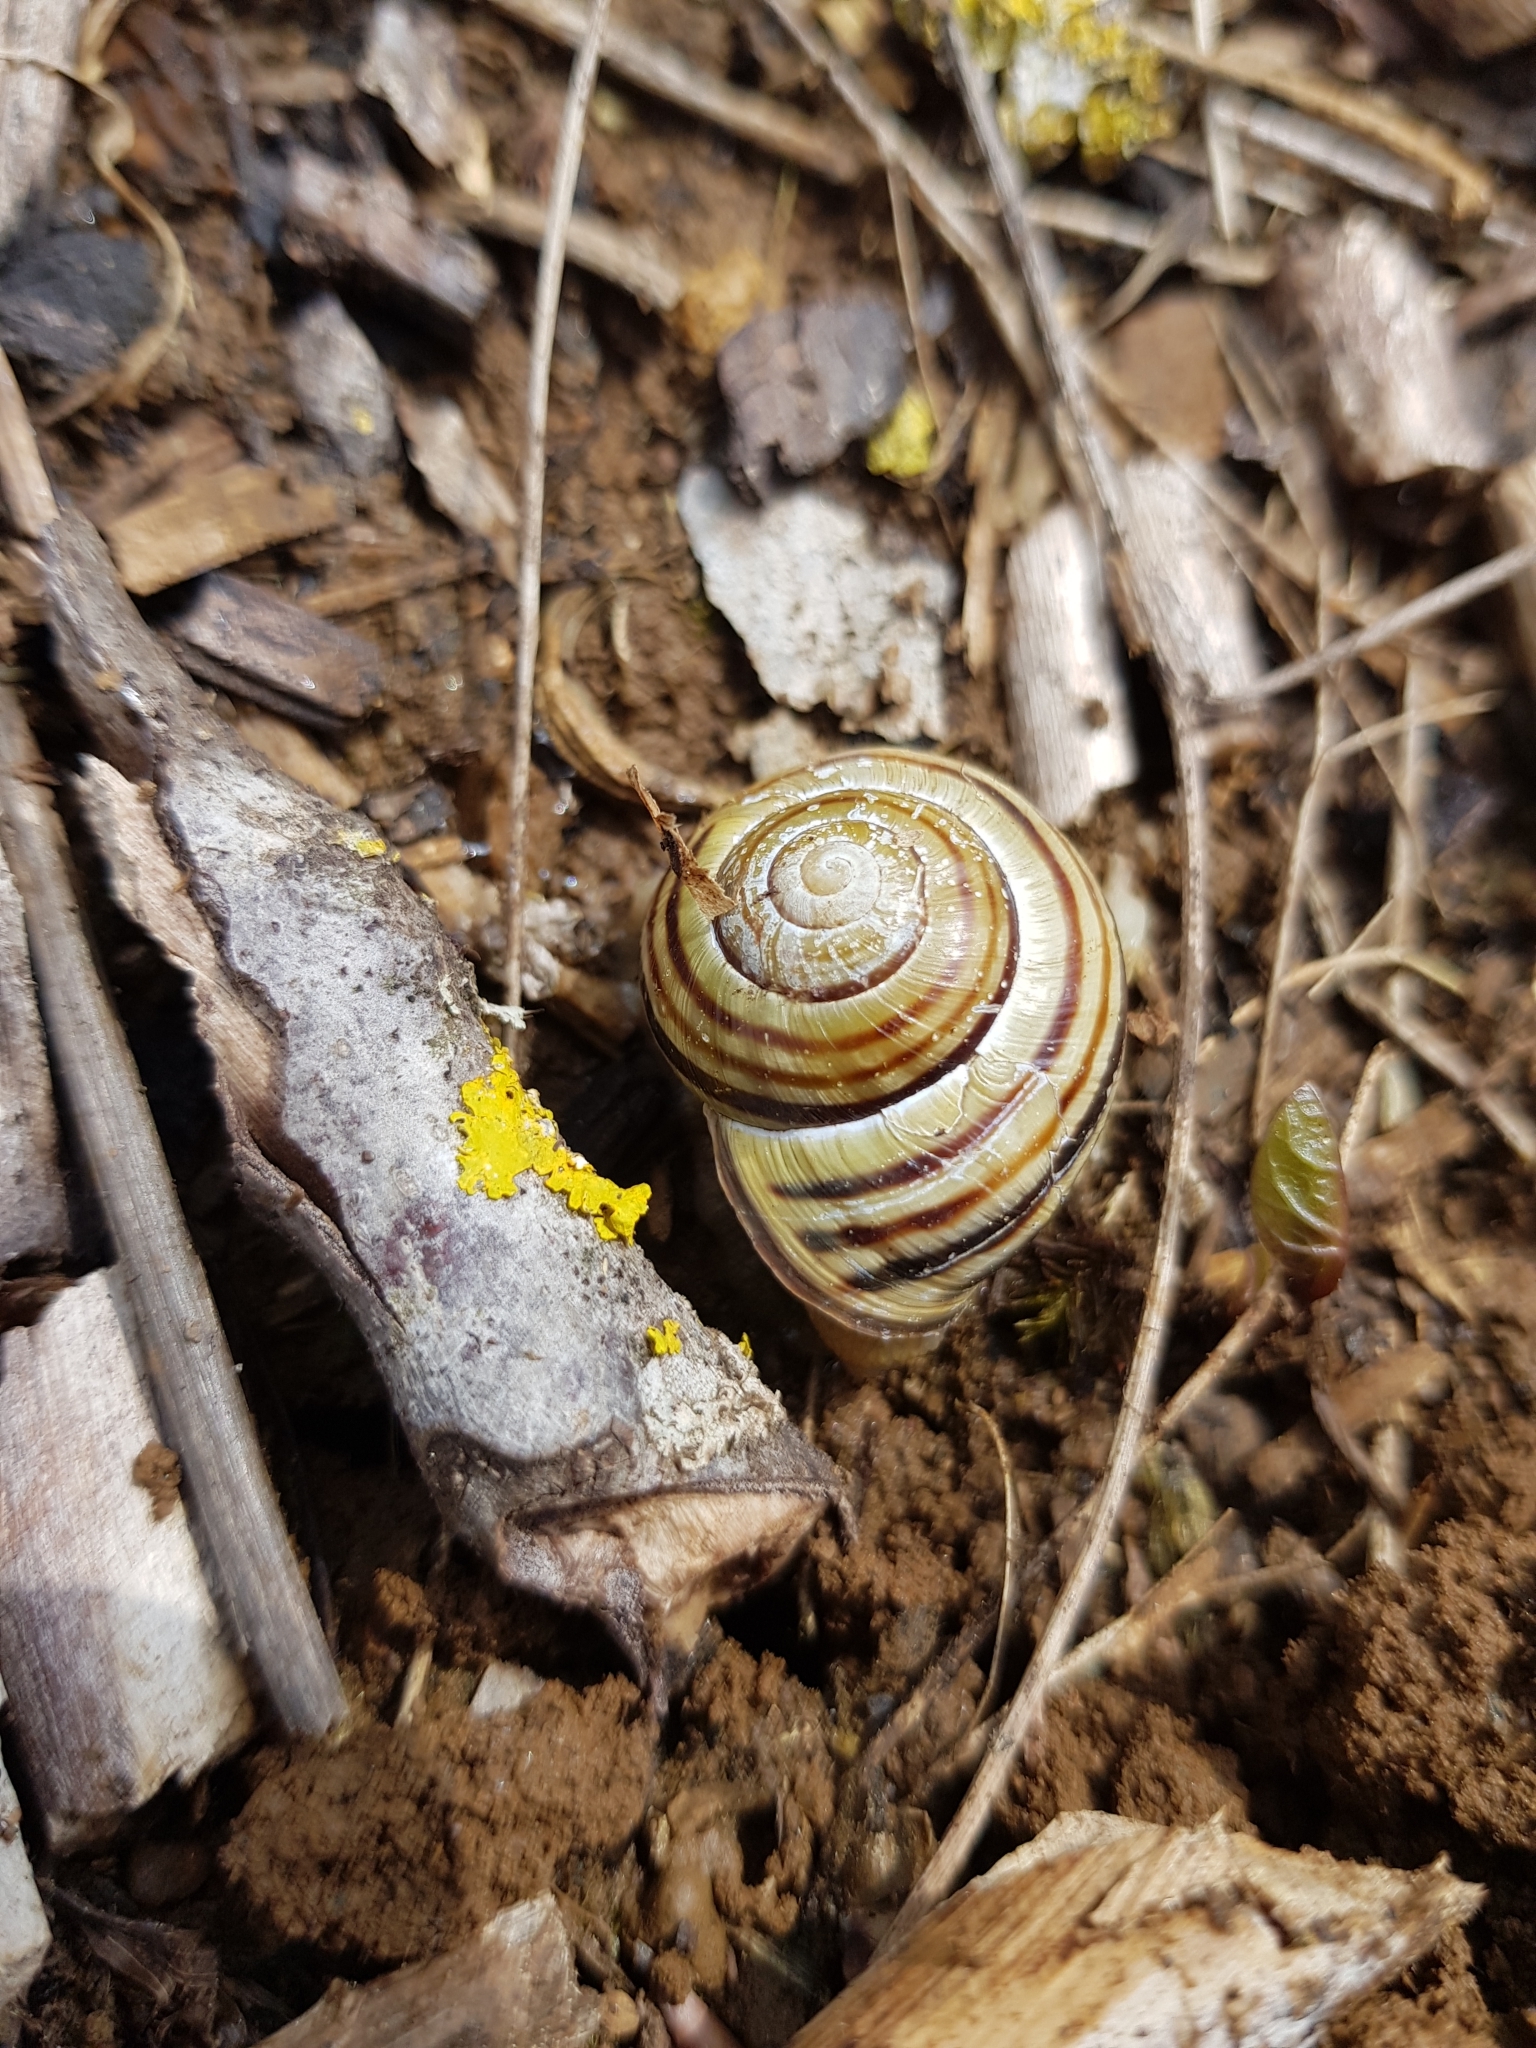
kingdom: Animalia
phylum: Mollusca
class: Gastropoda
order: Stylommatophora
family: Helicidae
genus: Cepaea
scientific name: Cepaea nemoralis
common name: Grovesnail
